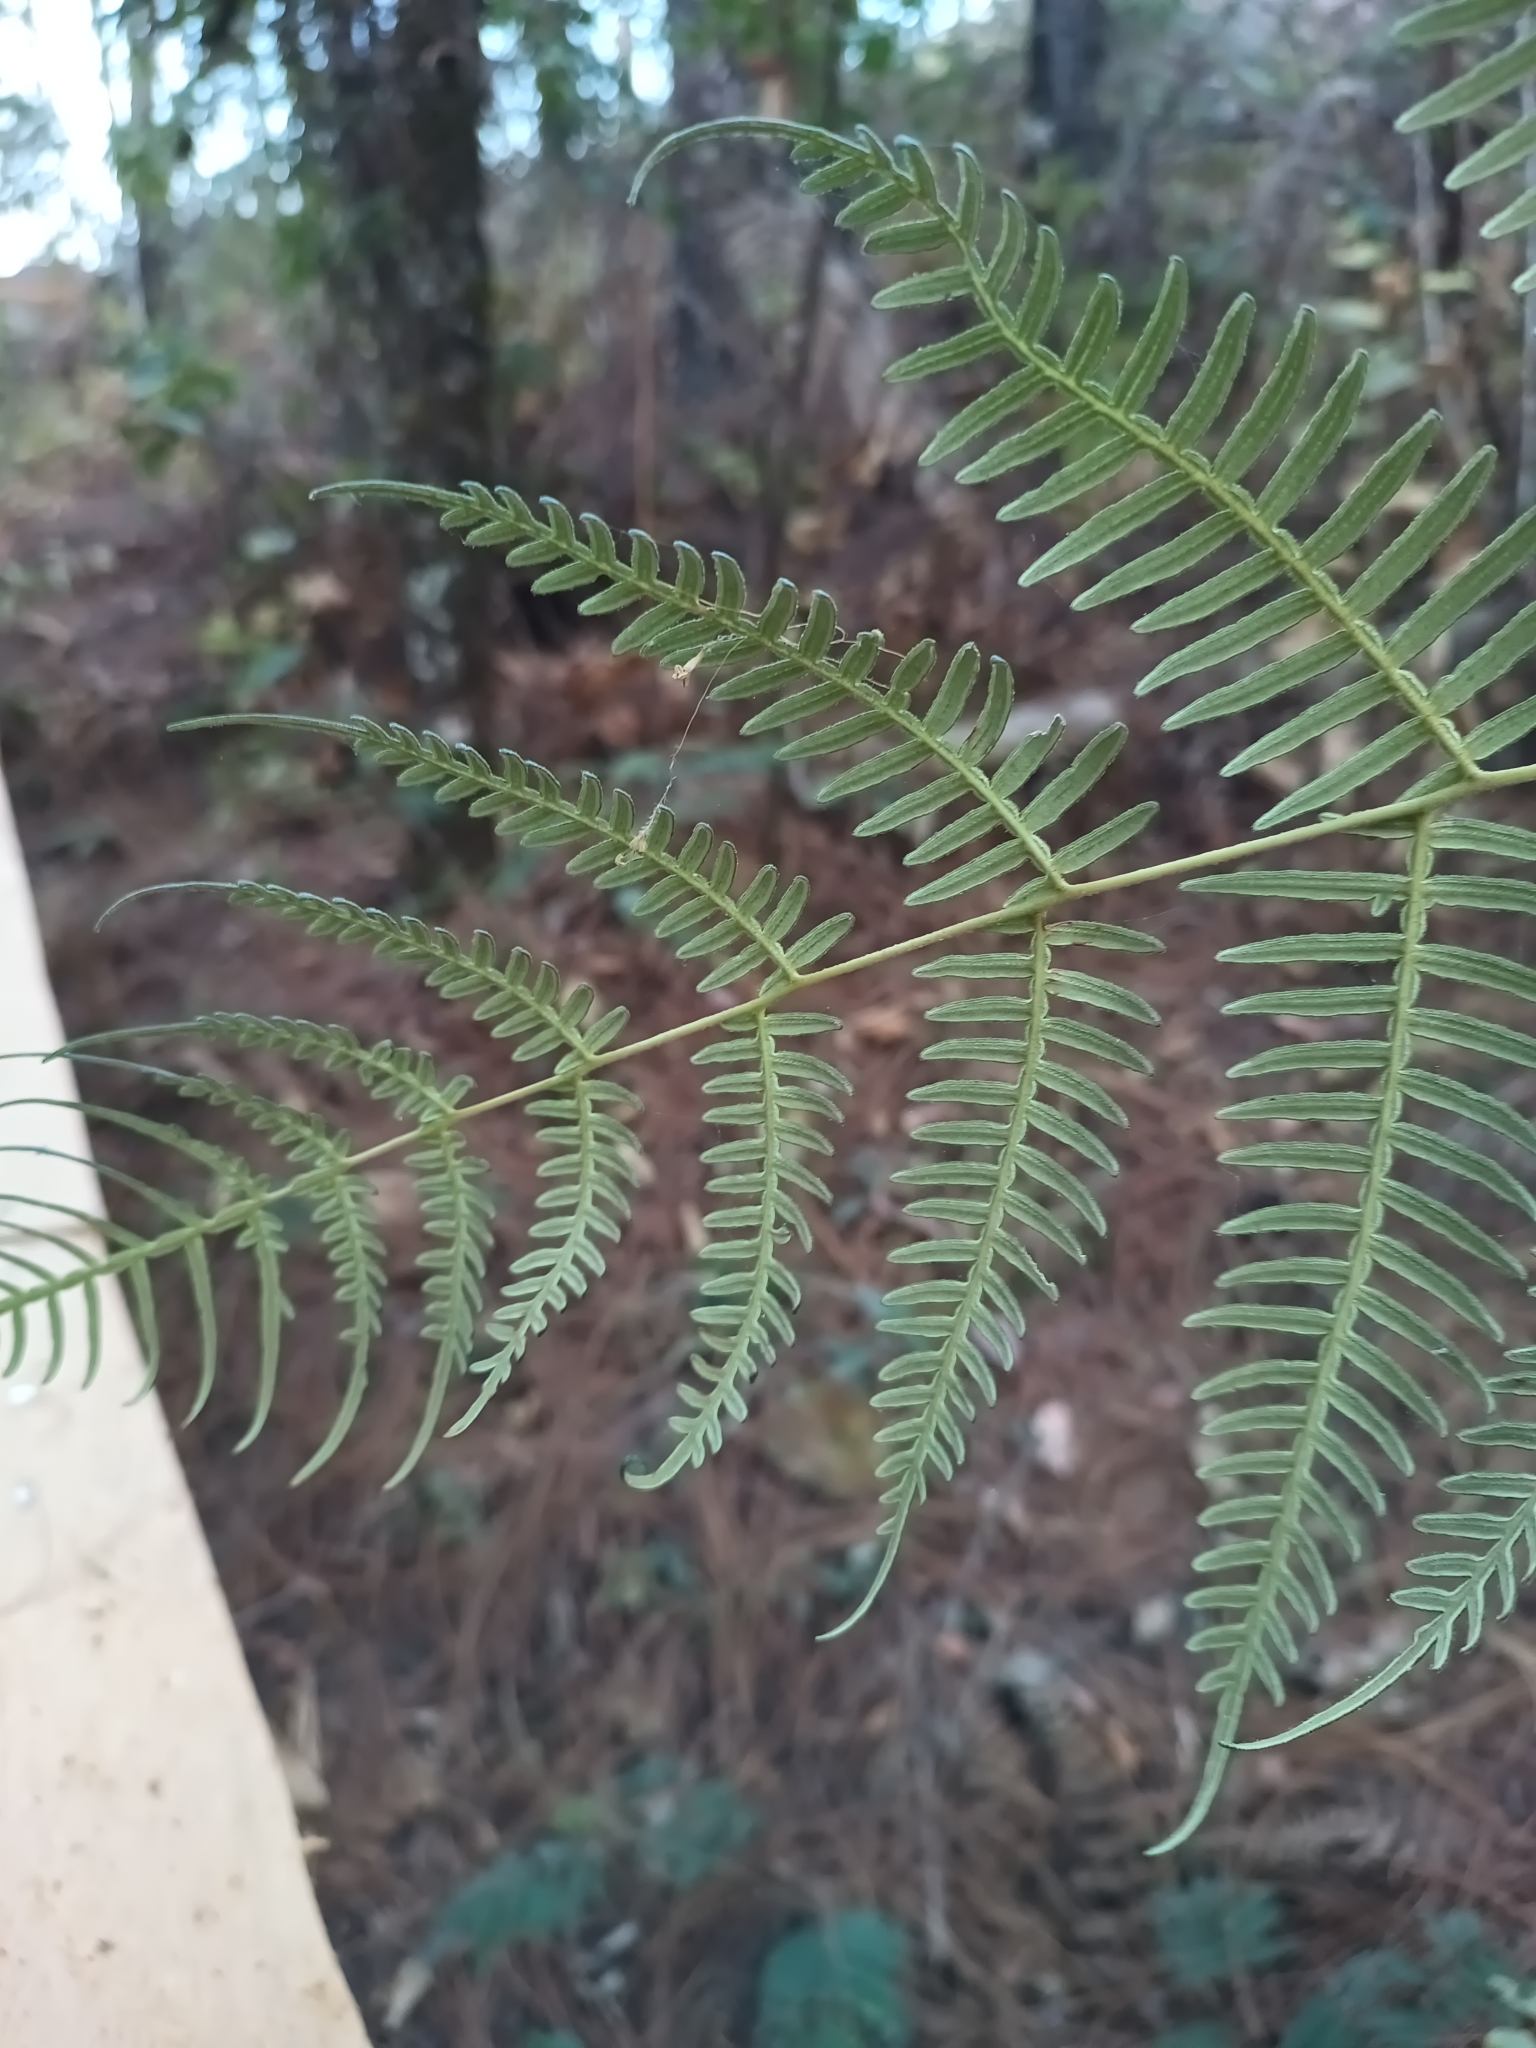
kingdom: Plantae
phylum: Tracheophyta
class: Polypodiopsida
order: Polypodiales
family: Dennstaedtiaceae
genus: Pteridium
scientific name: Pteridium esculentum
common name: Bracken fern
